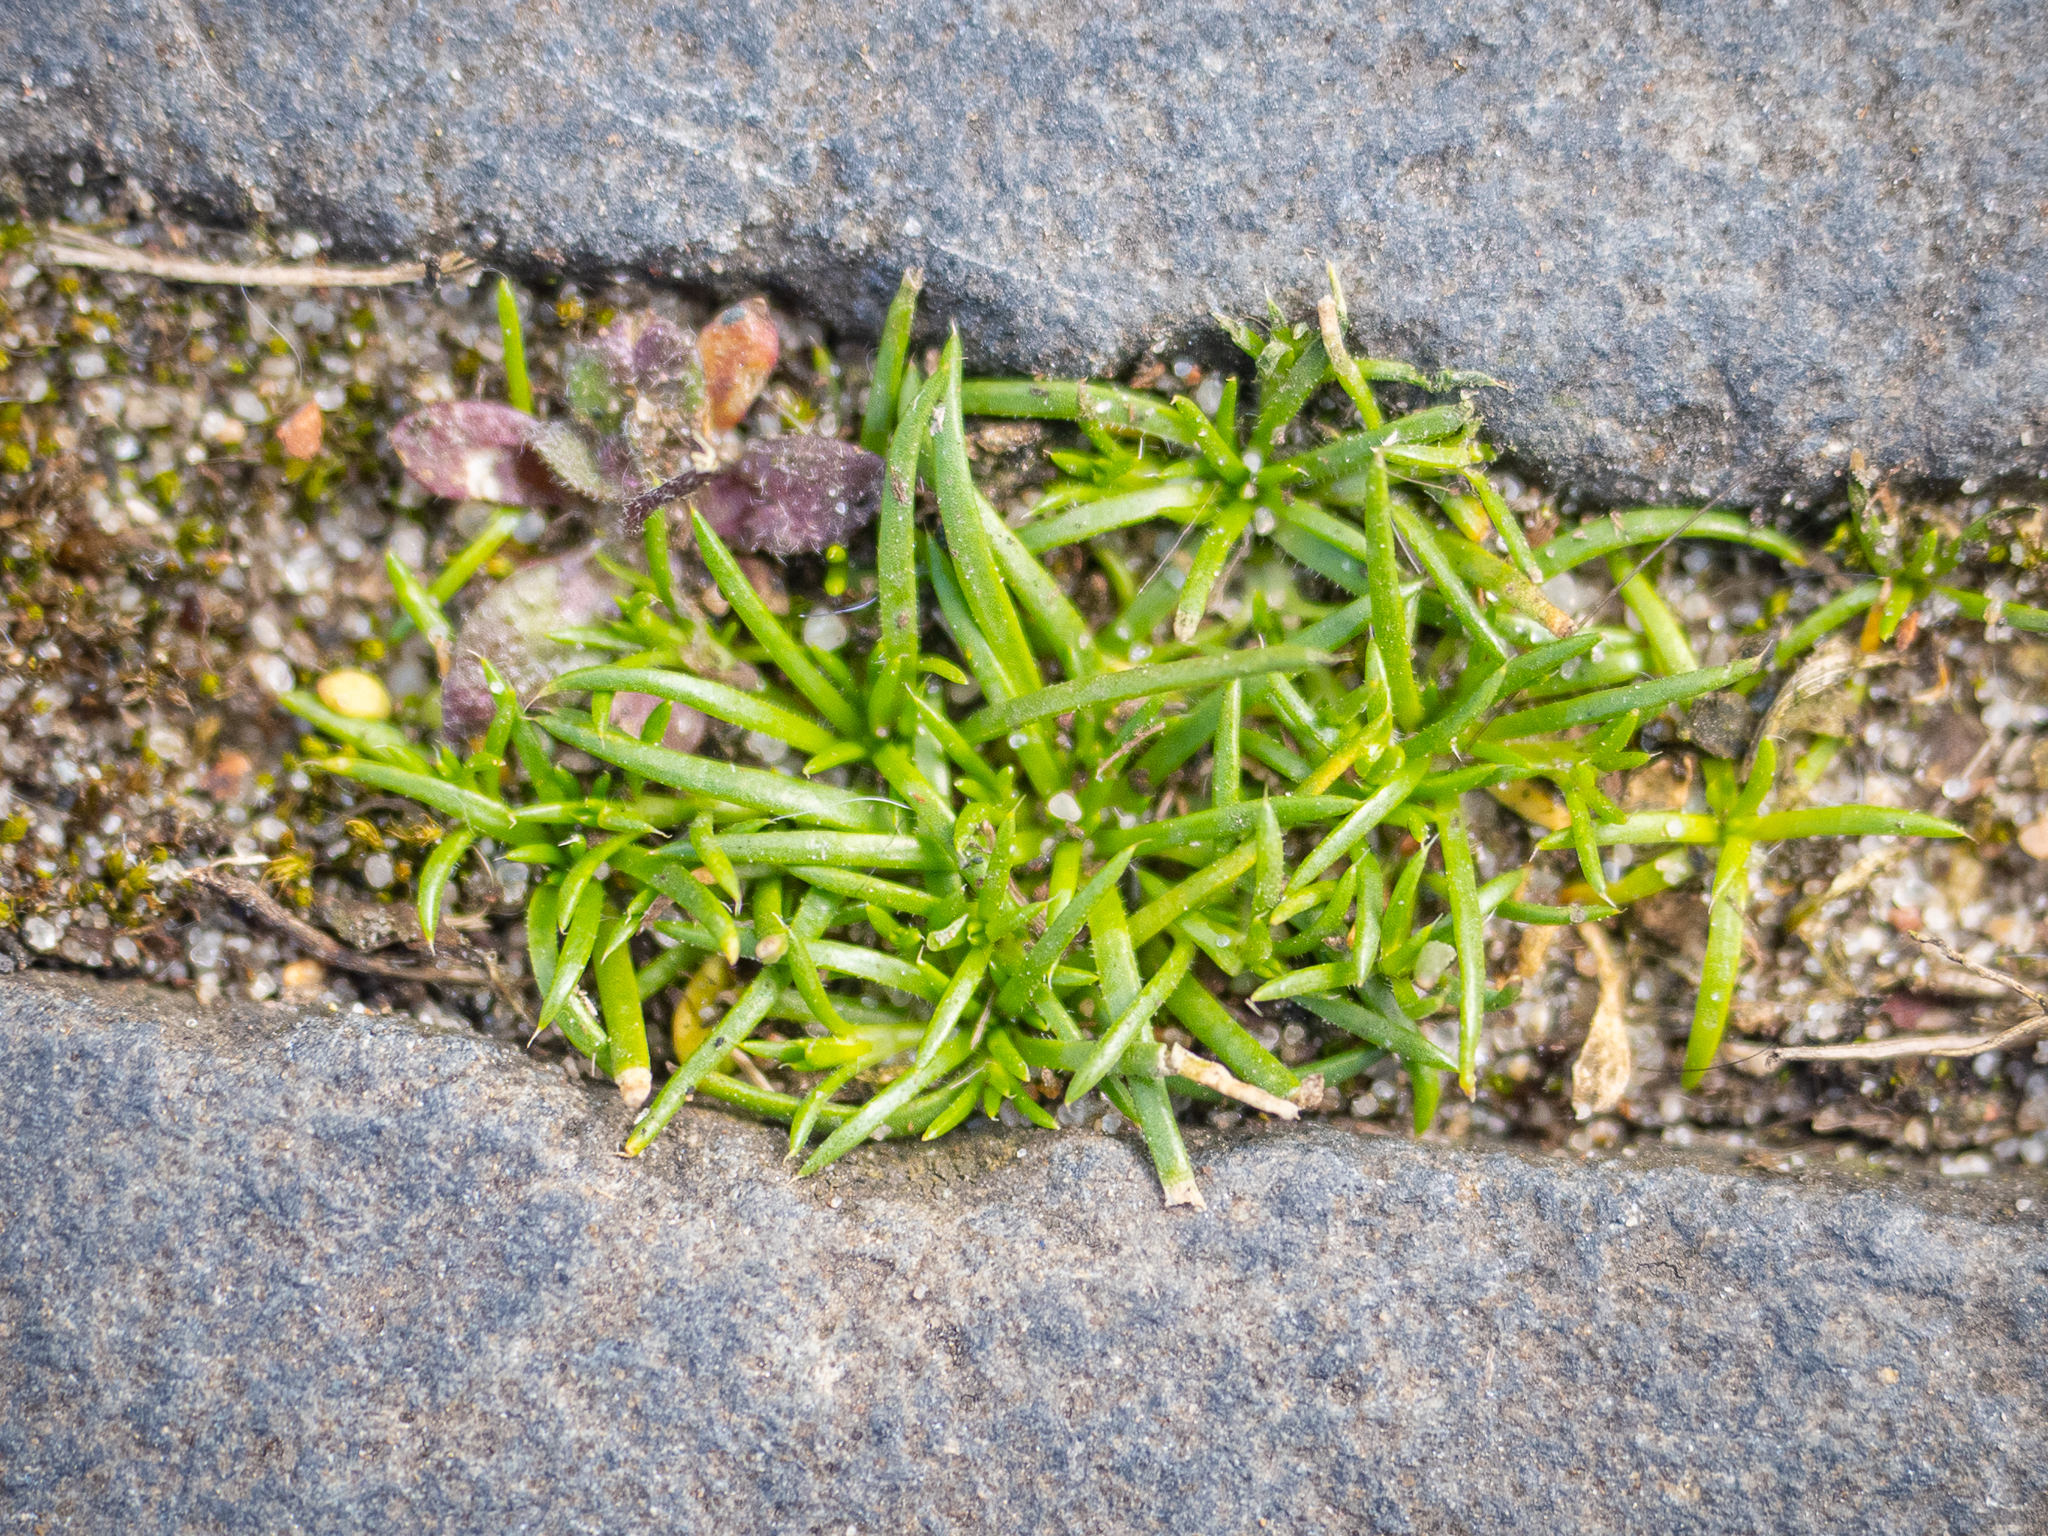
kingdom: Plantae
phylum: Tracheophyta
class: Magnoliopsida
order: Caryophyllales
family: Caryophyllaceae
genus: Sagina
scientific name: Sagina procumbens
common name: Procumbent pearlwort
